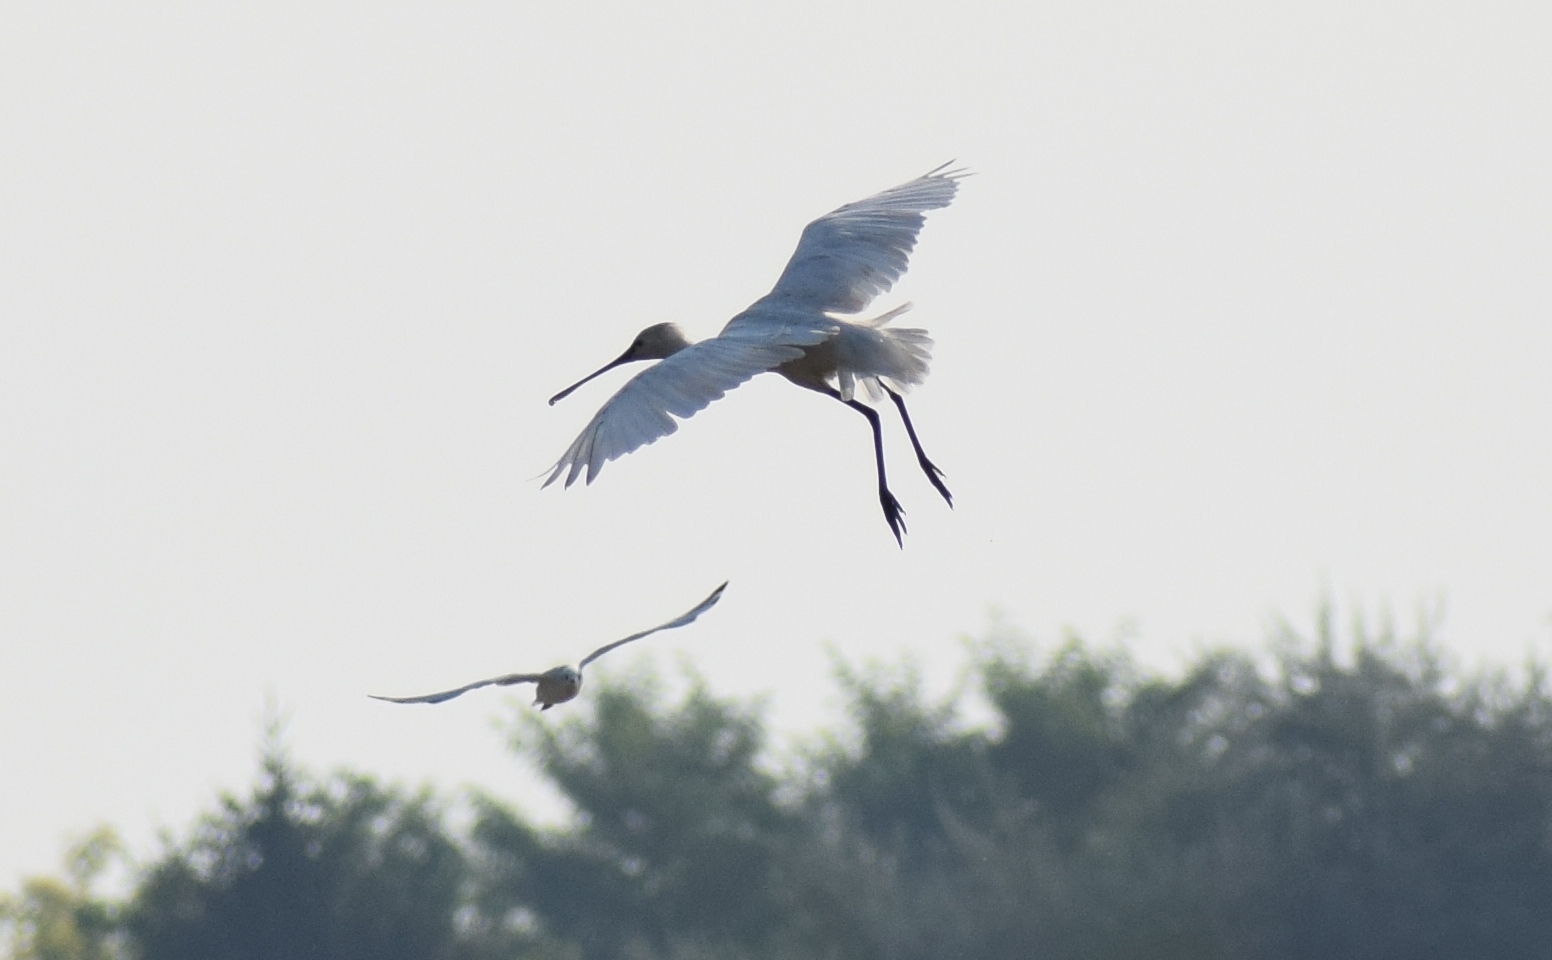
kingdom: Animalia
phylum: Chordata
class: Aves
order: Pelecaniformes
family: Threskiornithidae
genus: Platalea
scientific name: Platalea leucorodia
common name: Eurasian spoonbill
